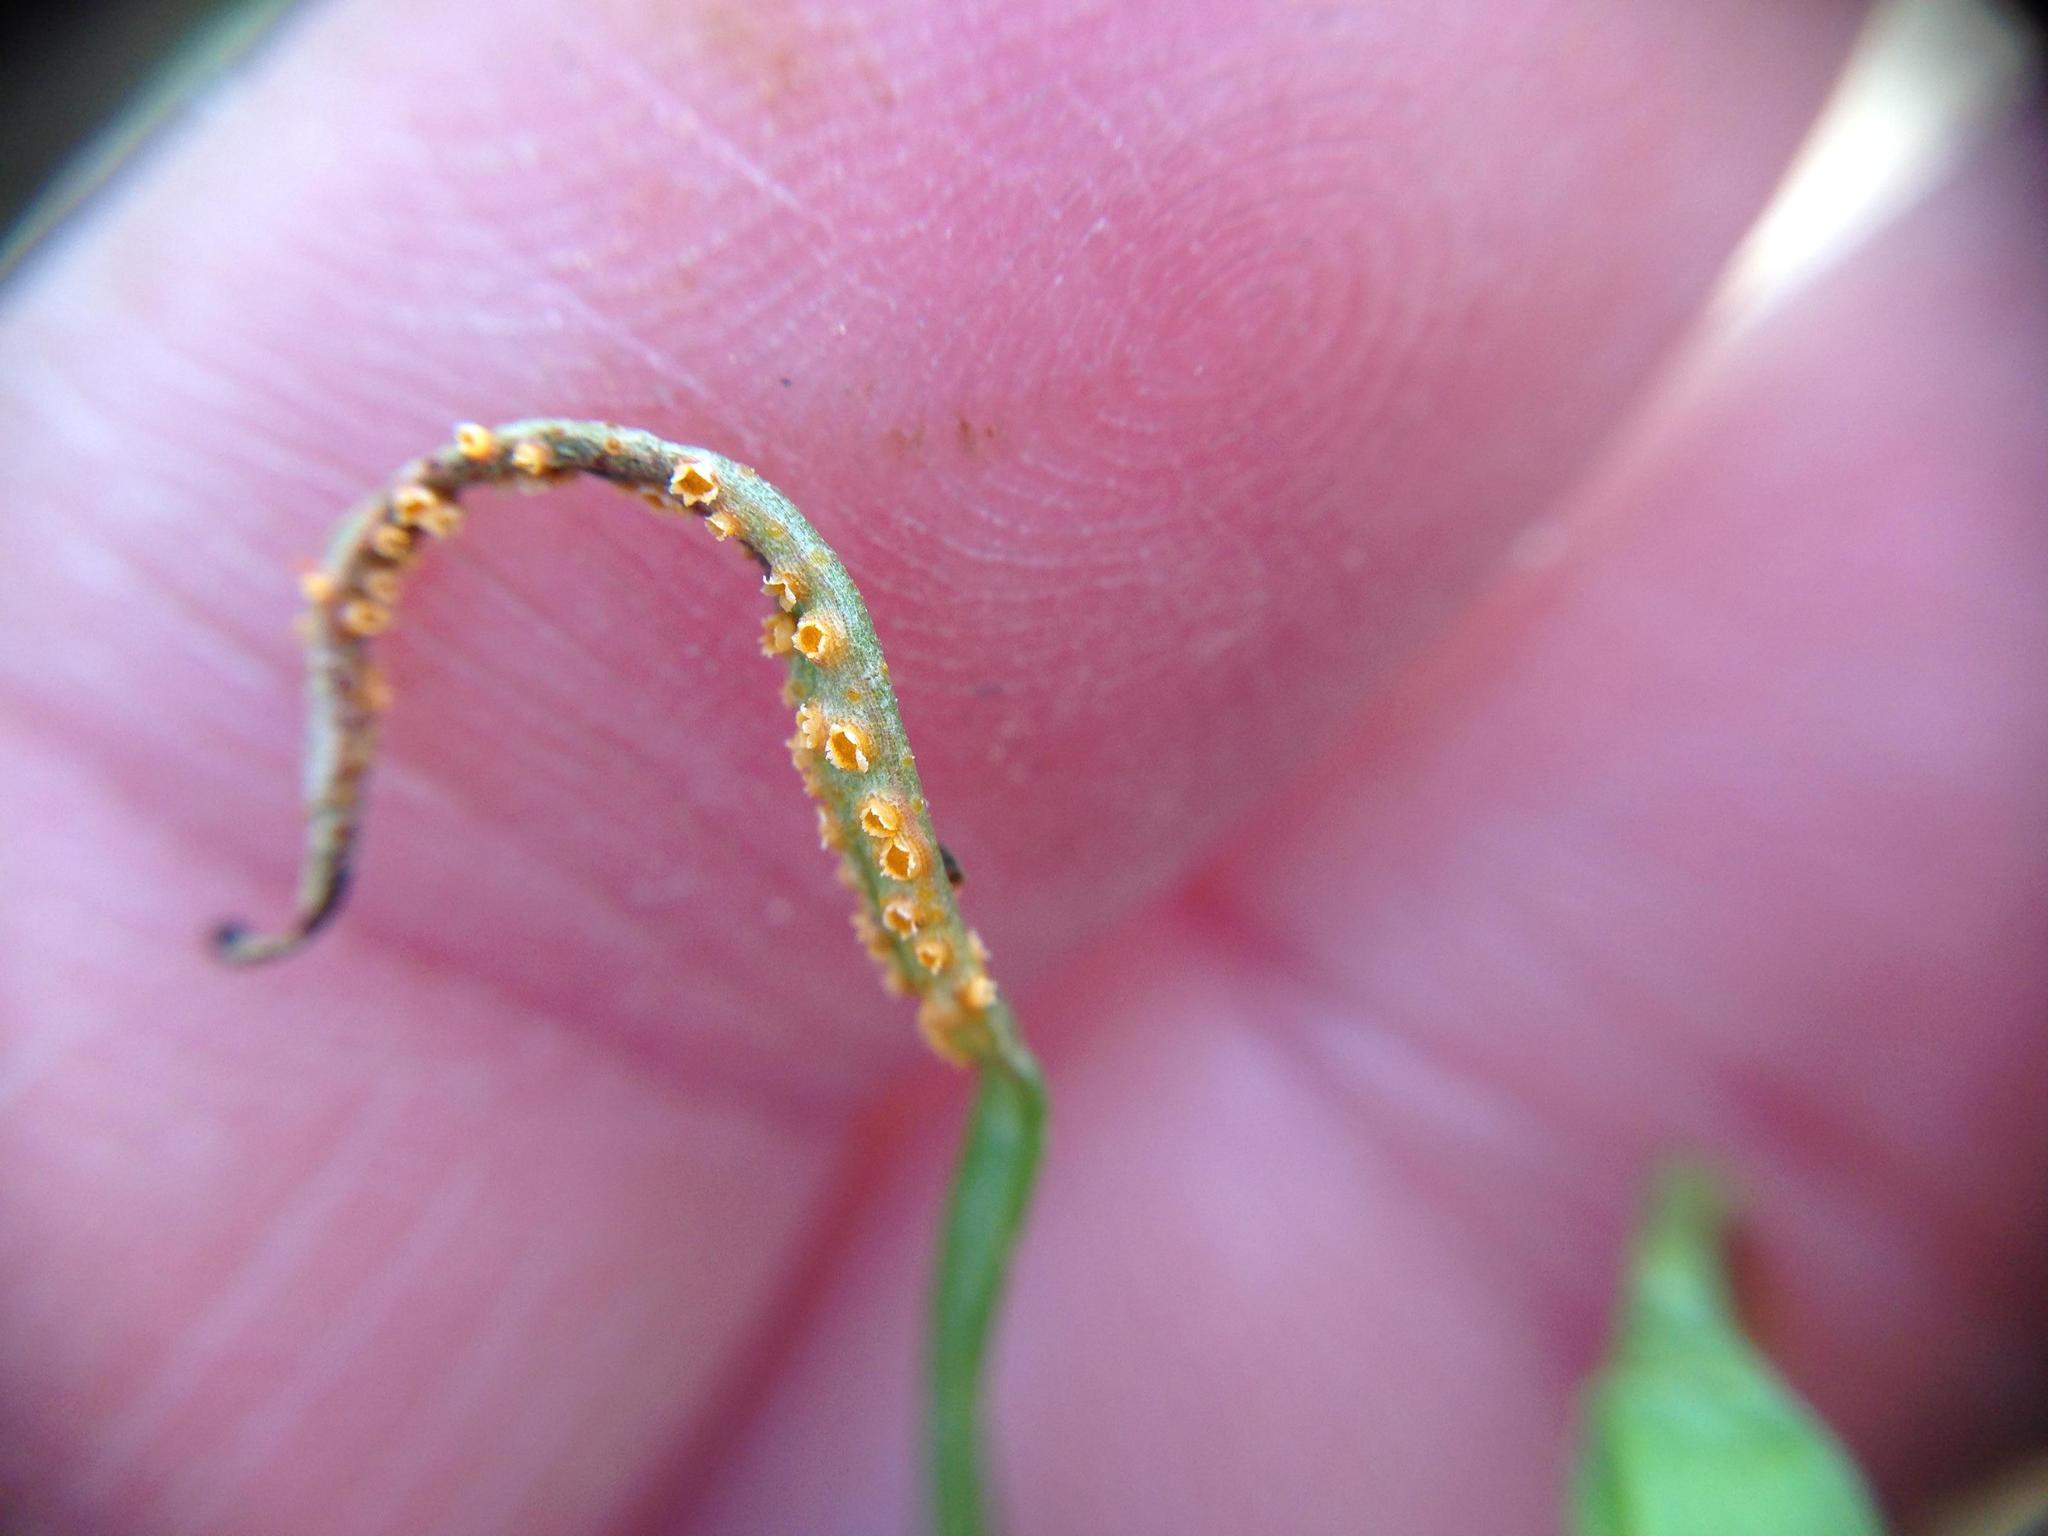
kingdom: Fungi
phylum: Basidiomycota
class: Pucciniomycetes
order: Pucciniales
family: Pucciniaceae
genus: Puccinia
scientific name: Puccinia mariae-wilsoniae
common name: Spring beauty rust
